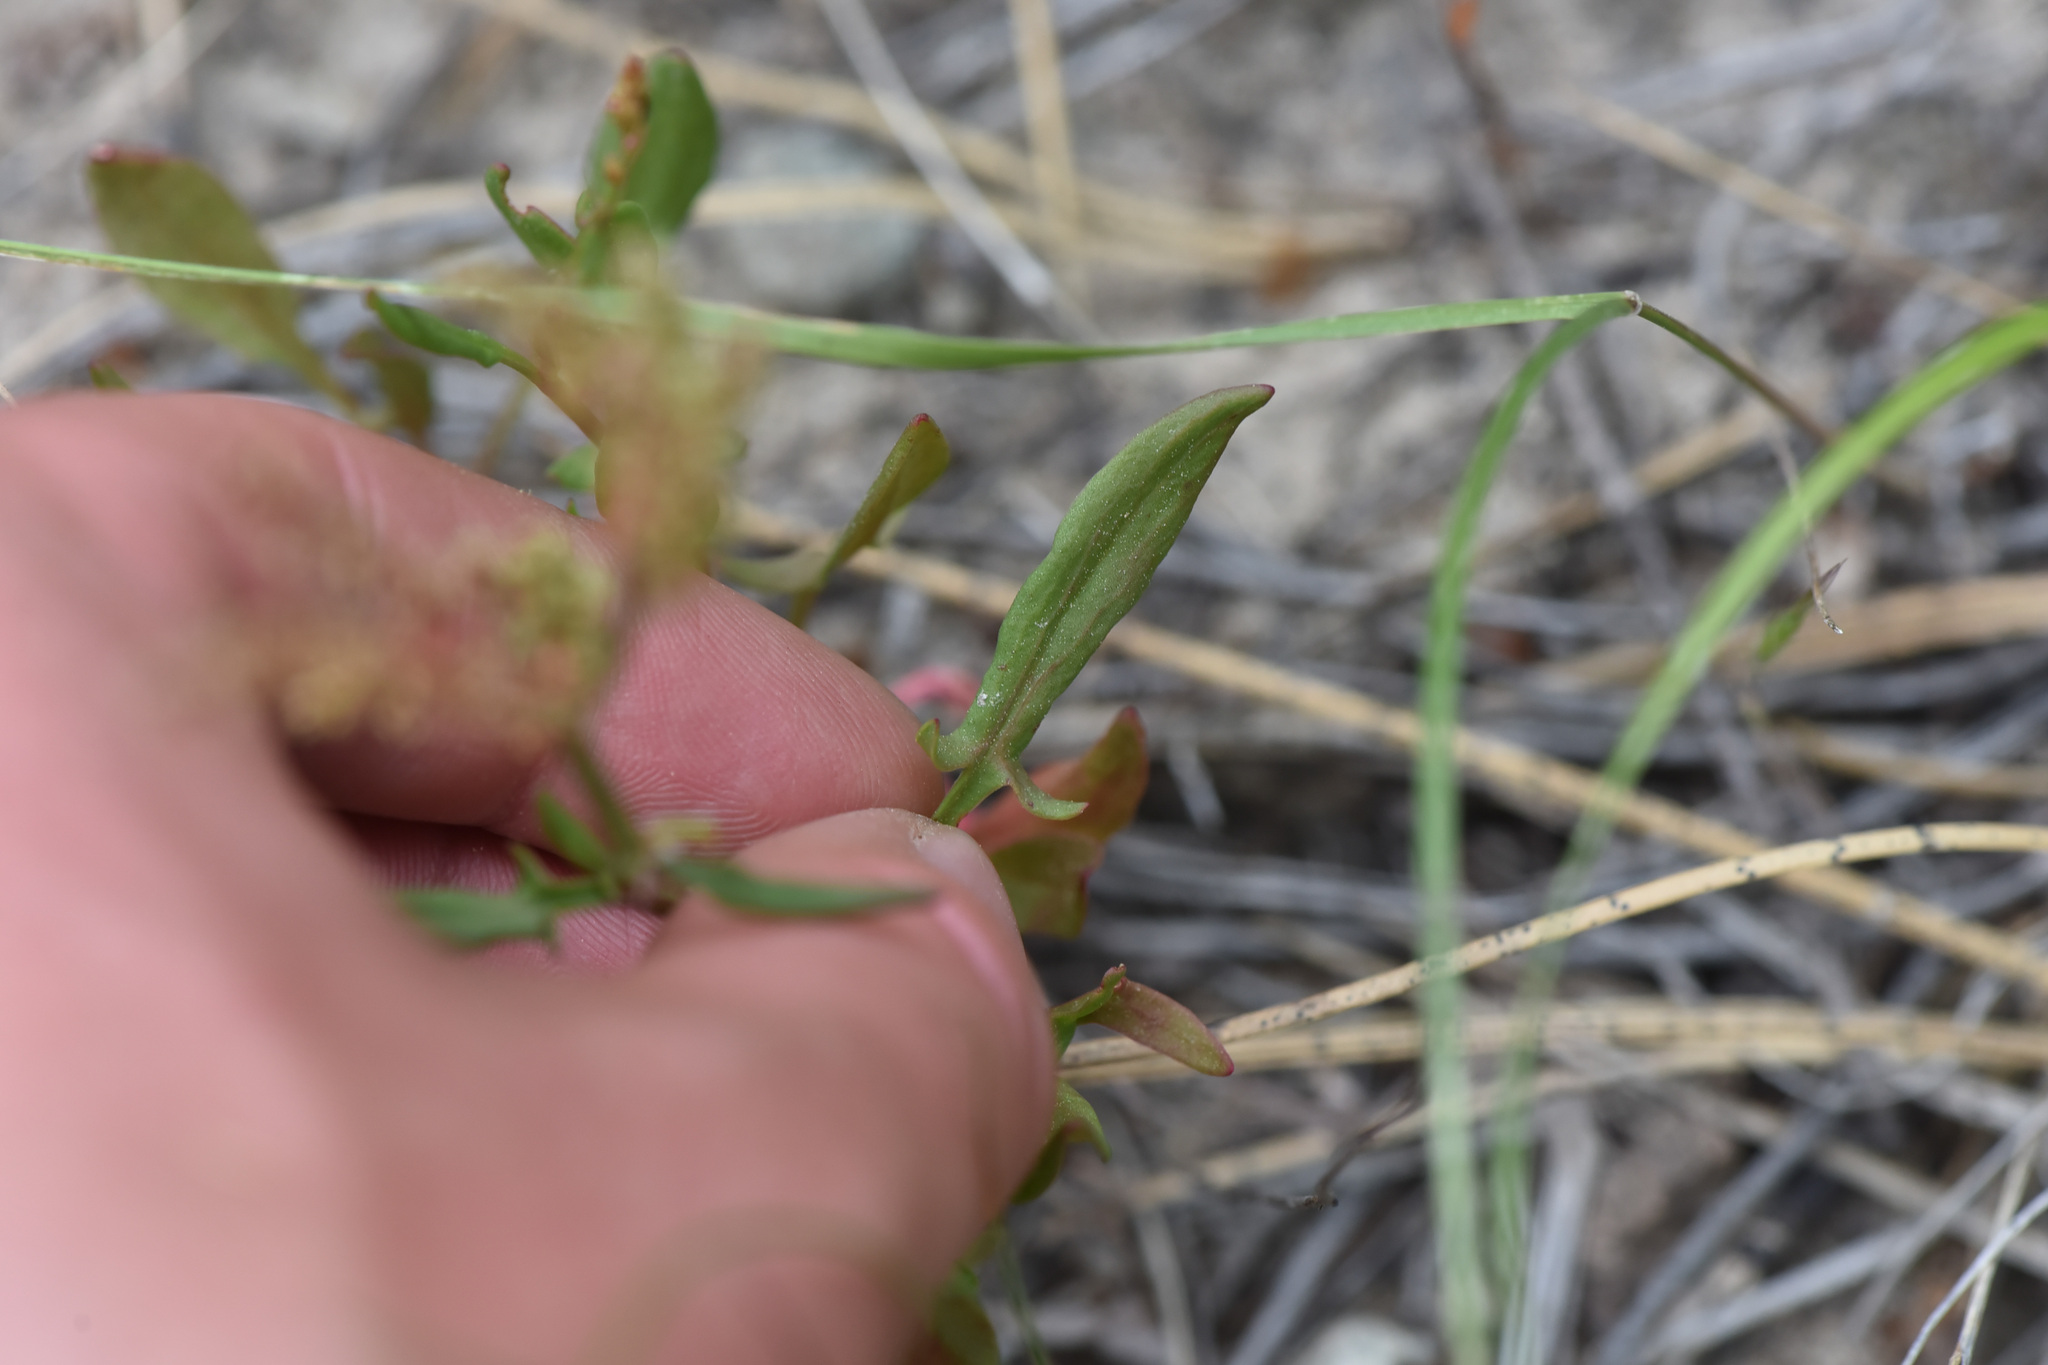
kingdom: Plantae
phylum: Tracheophyta
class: Magnoliopsida
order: Caryophyllales
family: Polygonaceae
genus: Rumex
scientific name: Rumex acetosella
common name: Common sheep sorrel
